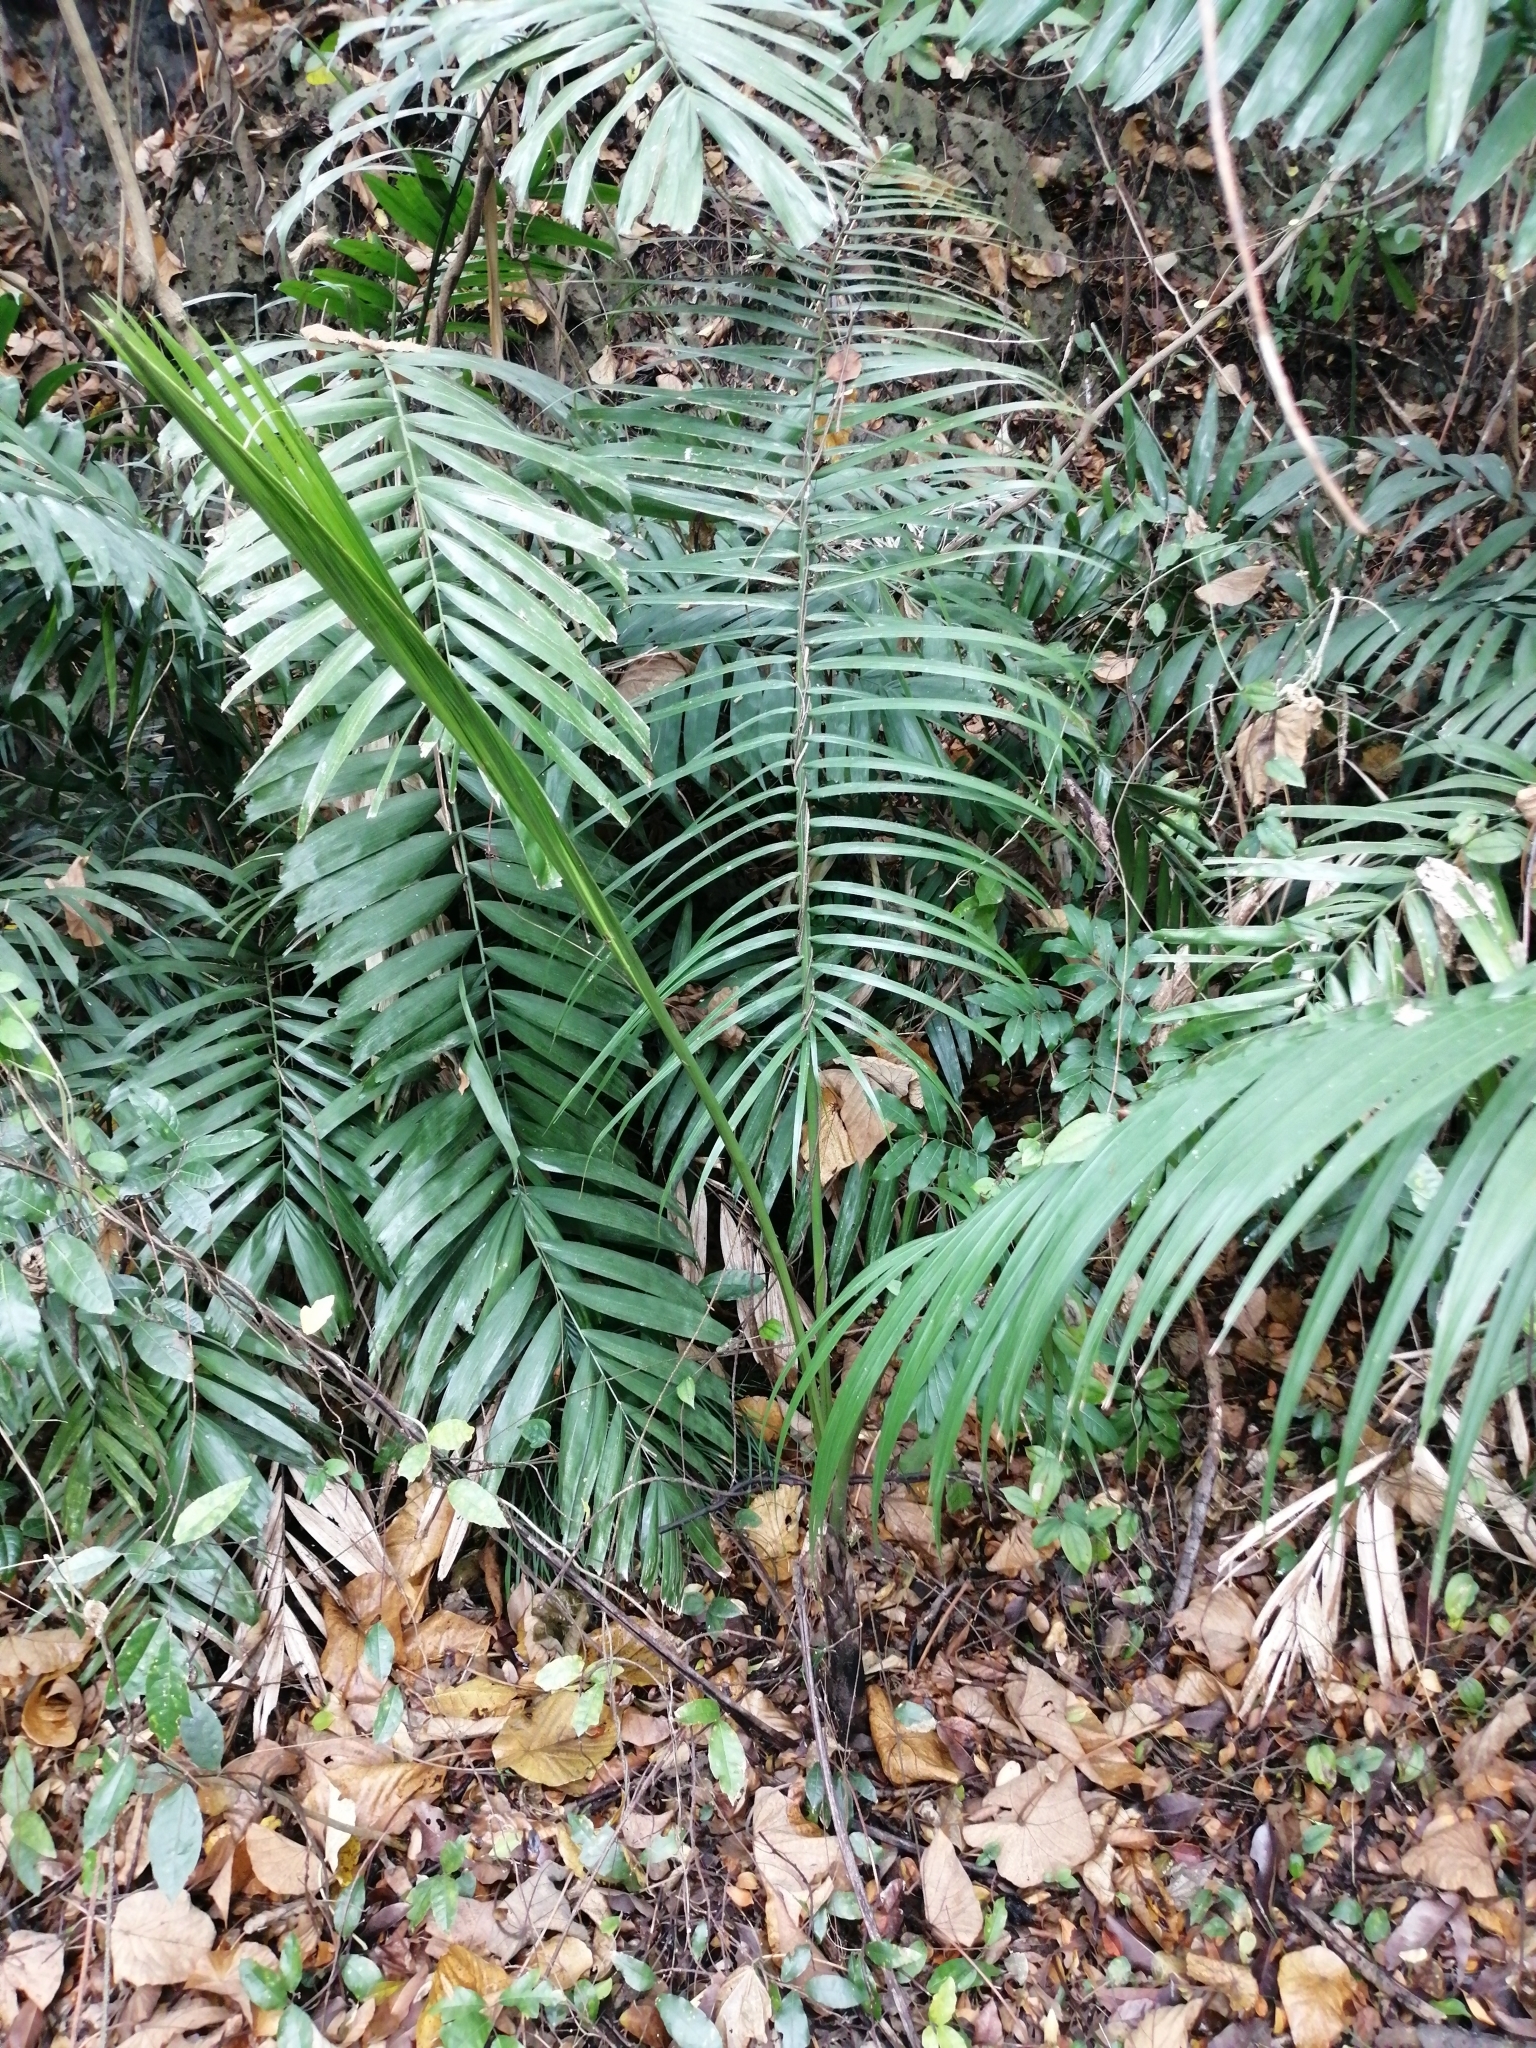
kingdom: Plantae
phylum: Tracheophyta
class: Liliopsida
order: Arecales
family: Arecaceae
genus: Arenga
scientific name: Arenga engleri
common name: Formosan sugar palm
